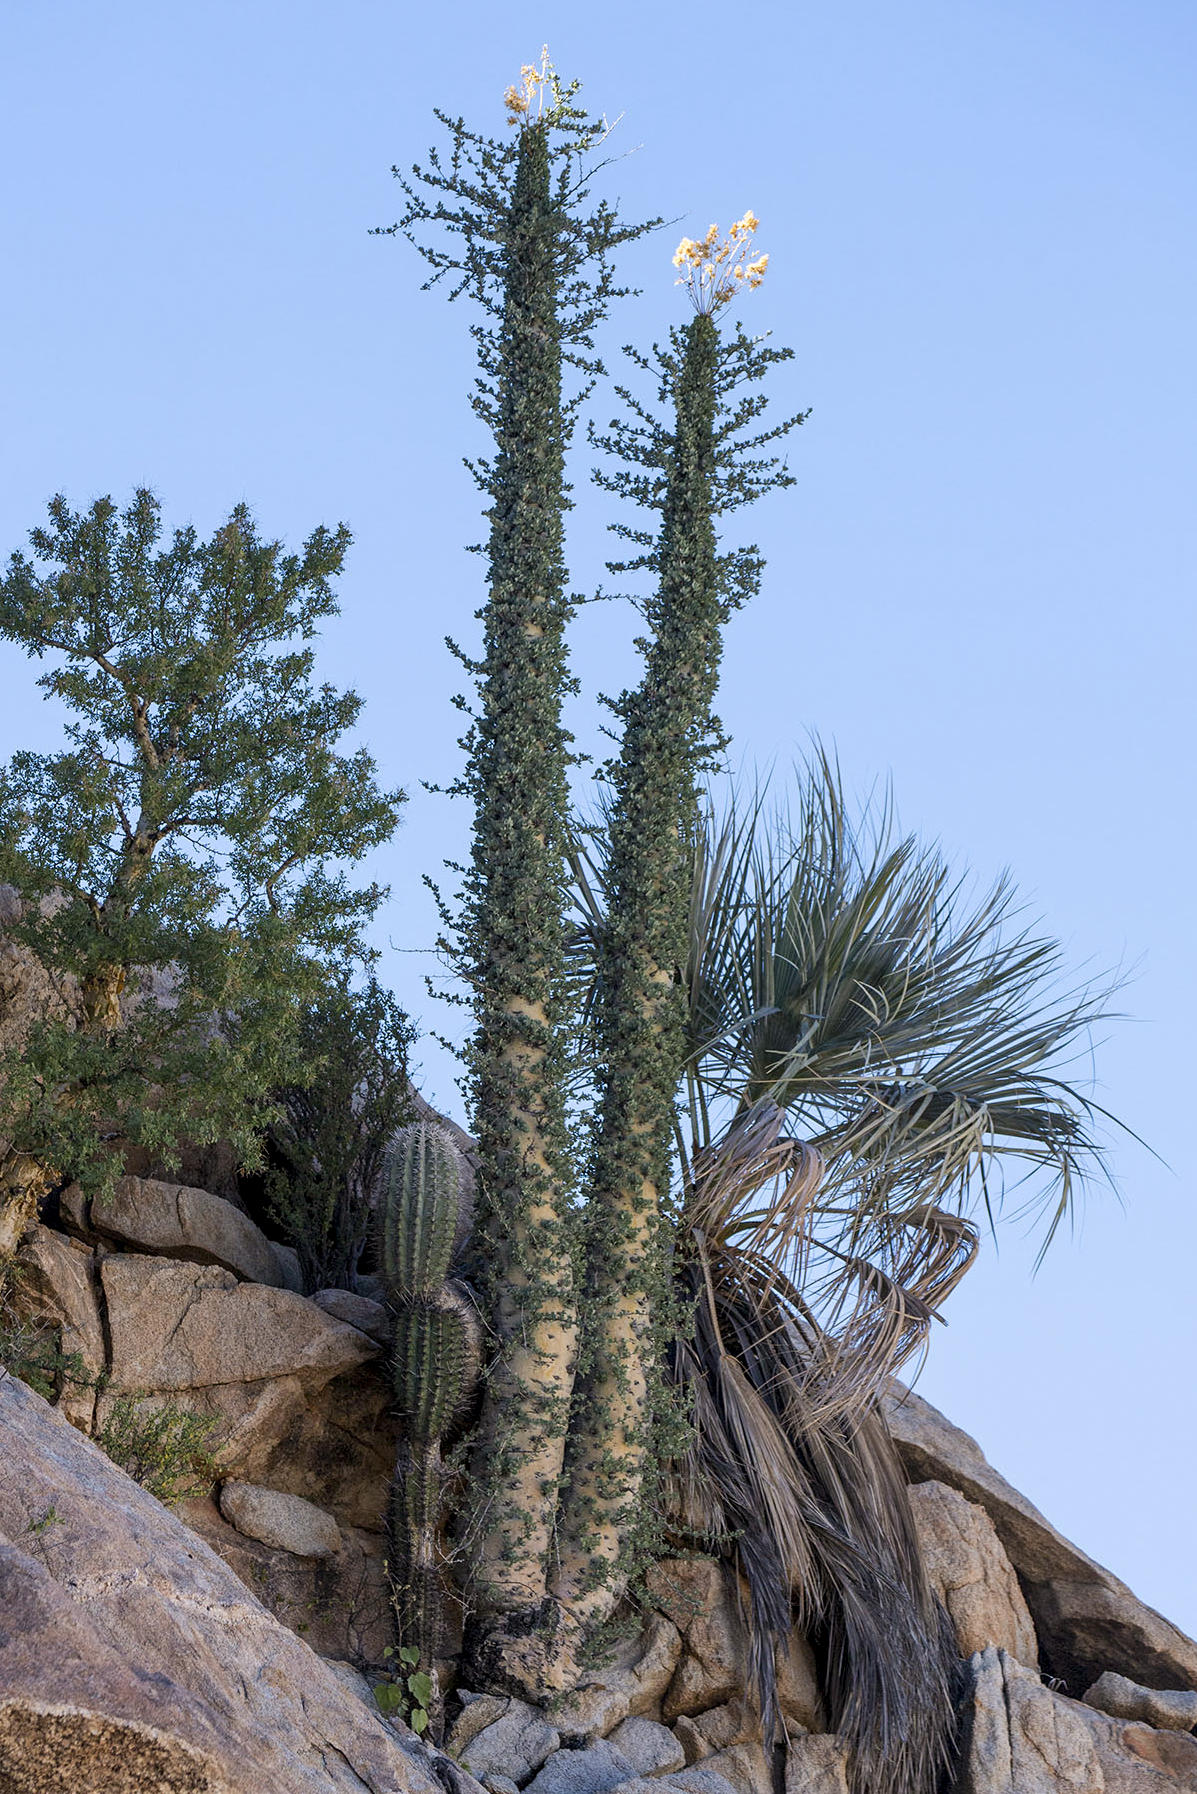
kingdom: Plantae
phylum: Tracheophyta
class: Magnoliopsida
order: Ericales
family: Fouquieriaceae
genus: Fouquieria
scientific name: Fouquieria columnaris
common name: Boojumtree
